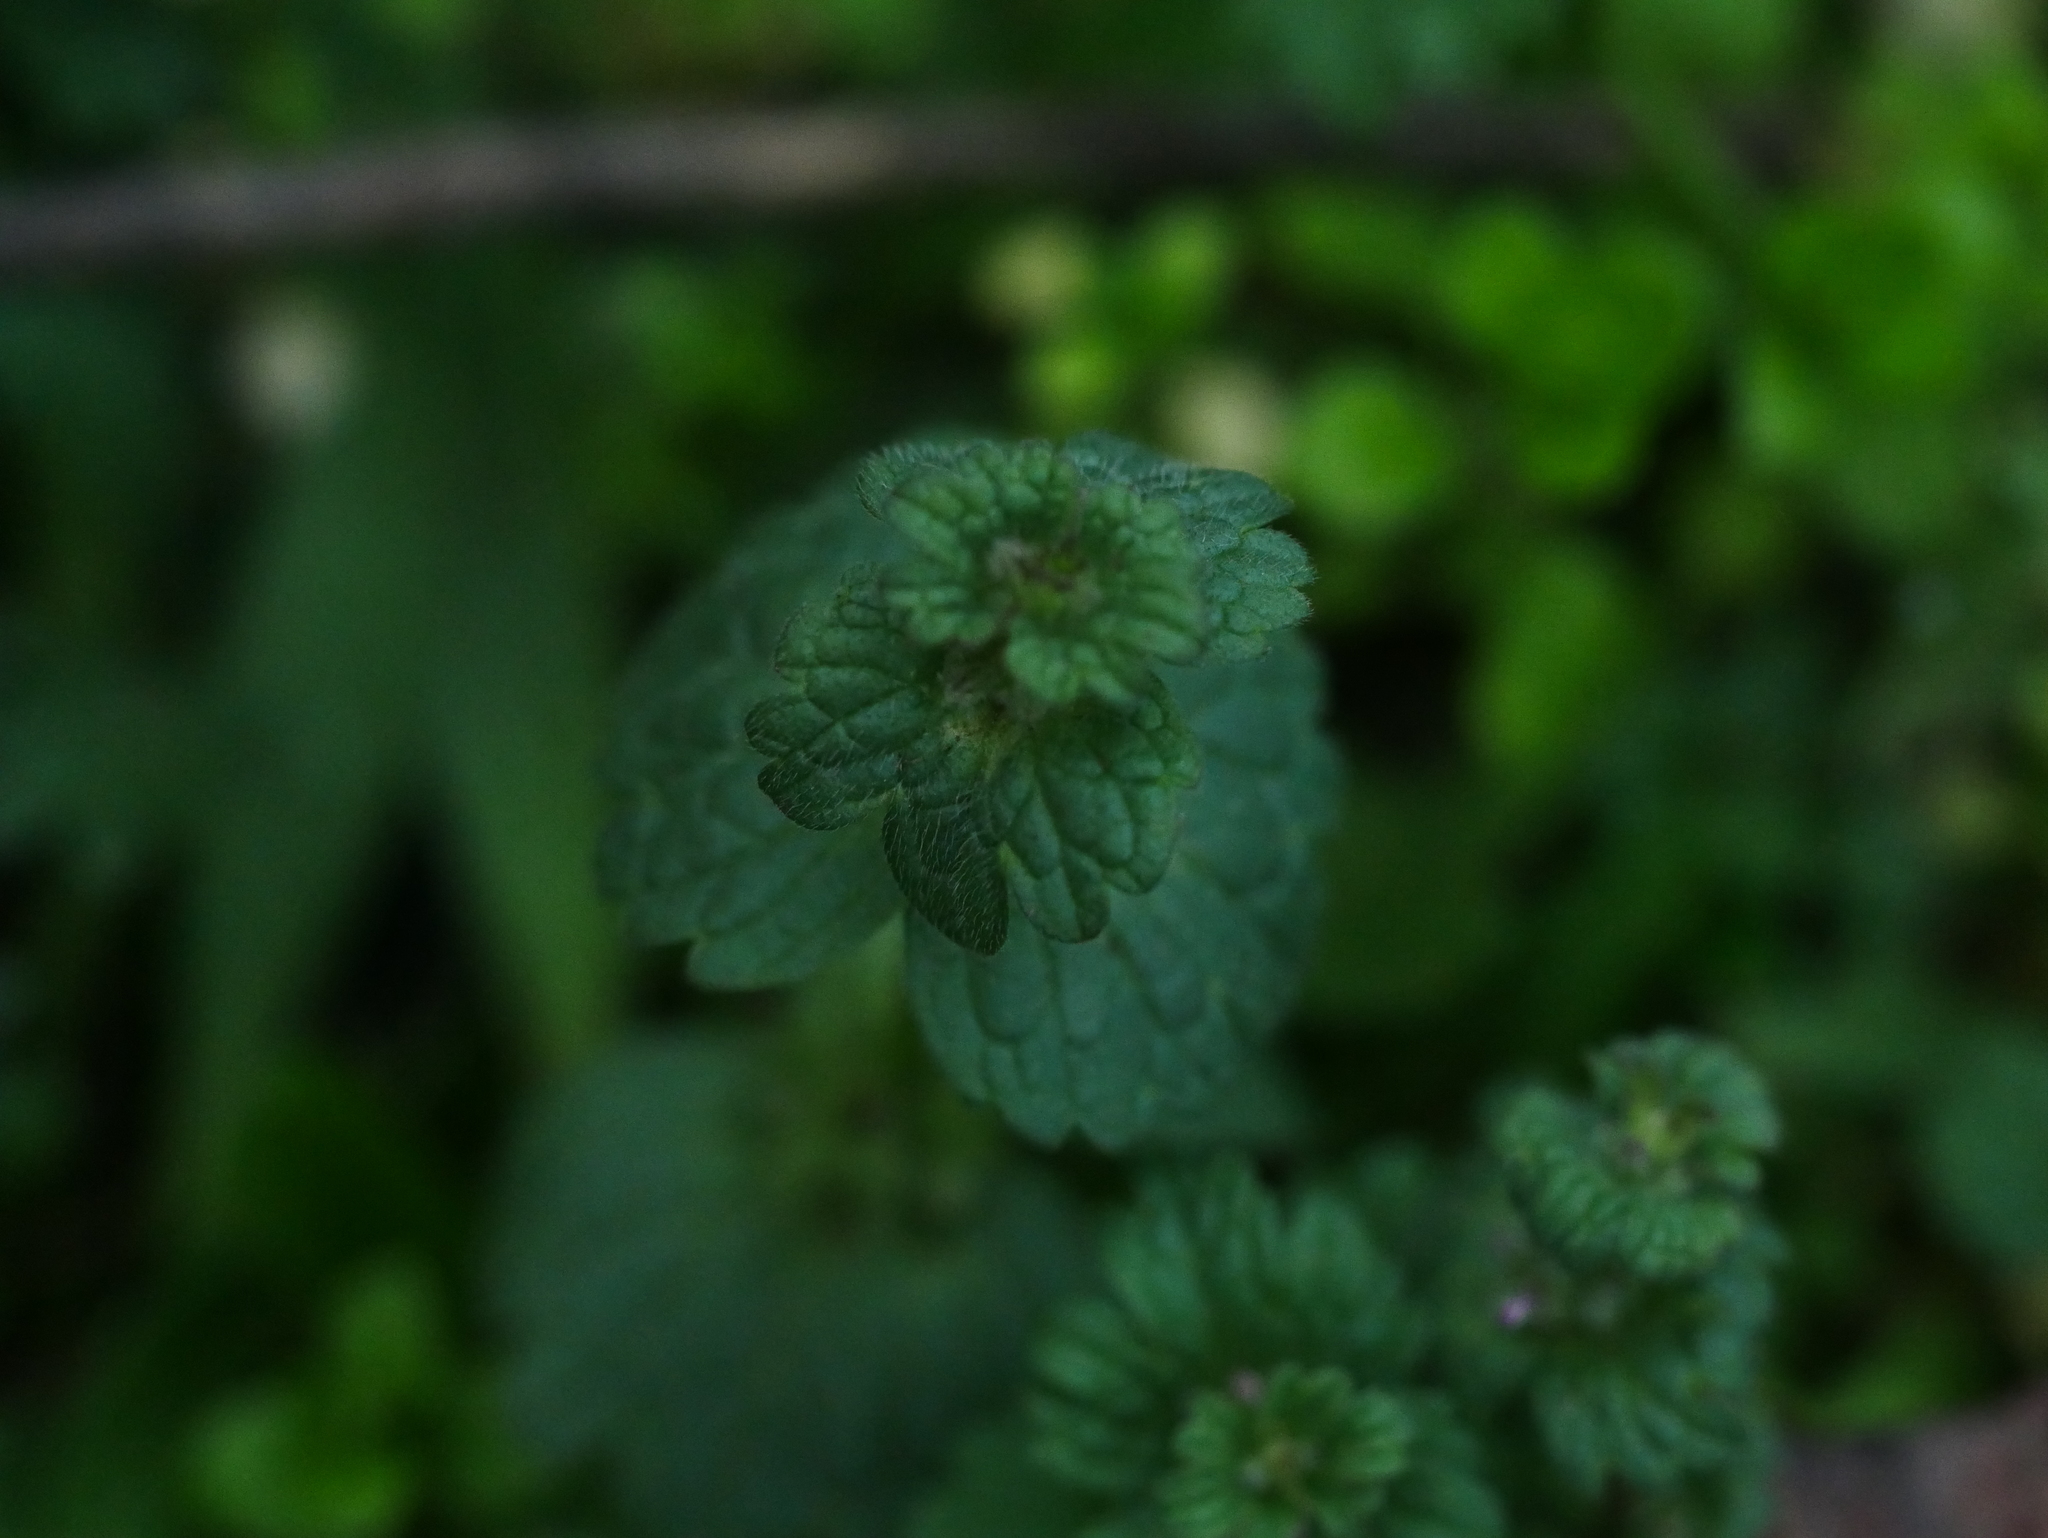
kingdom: Plantae
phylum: Tracheophyta
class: Magnoliopsida
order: Lamiales
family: Lamiaceae
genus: Lamium
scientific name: Lamium amplexicaule
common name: Henbit dead-nettle
